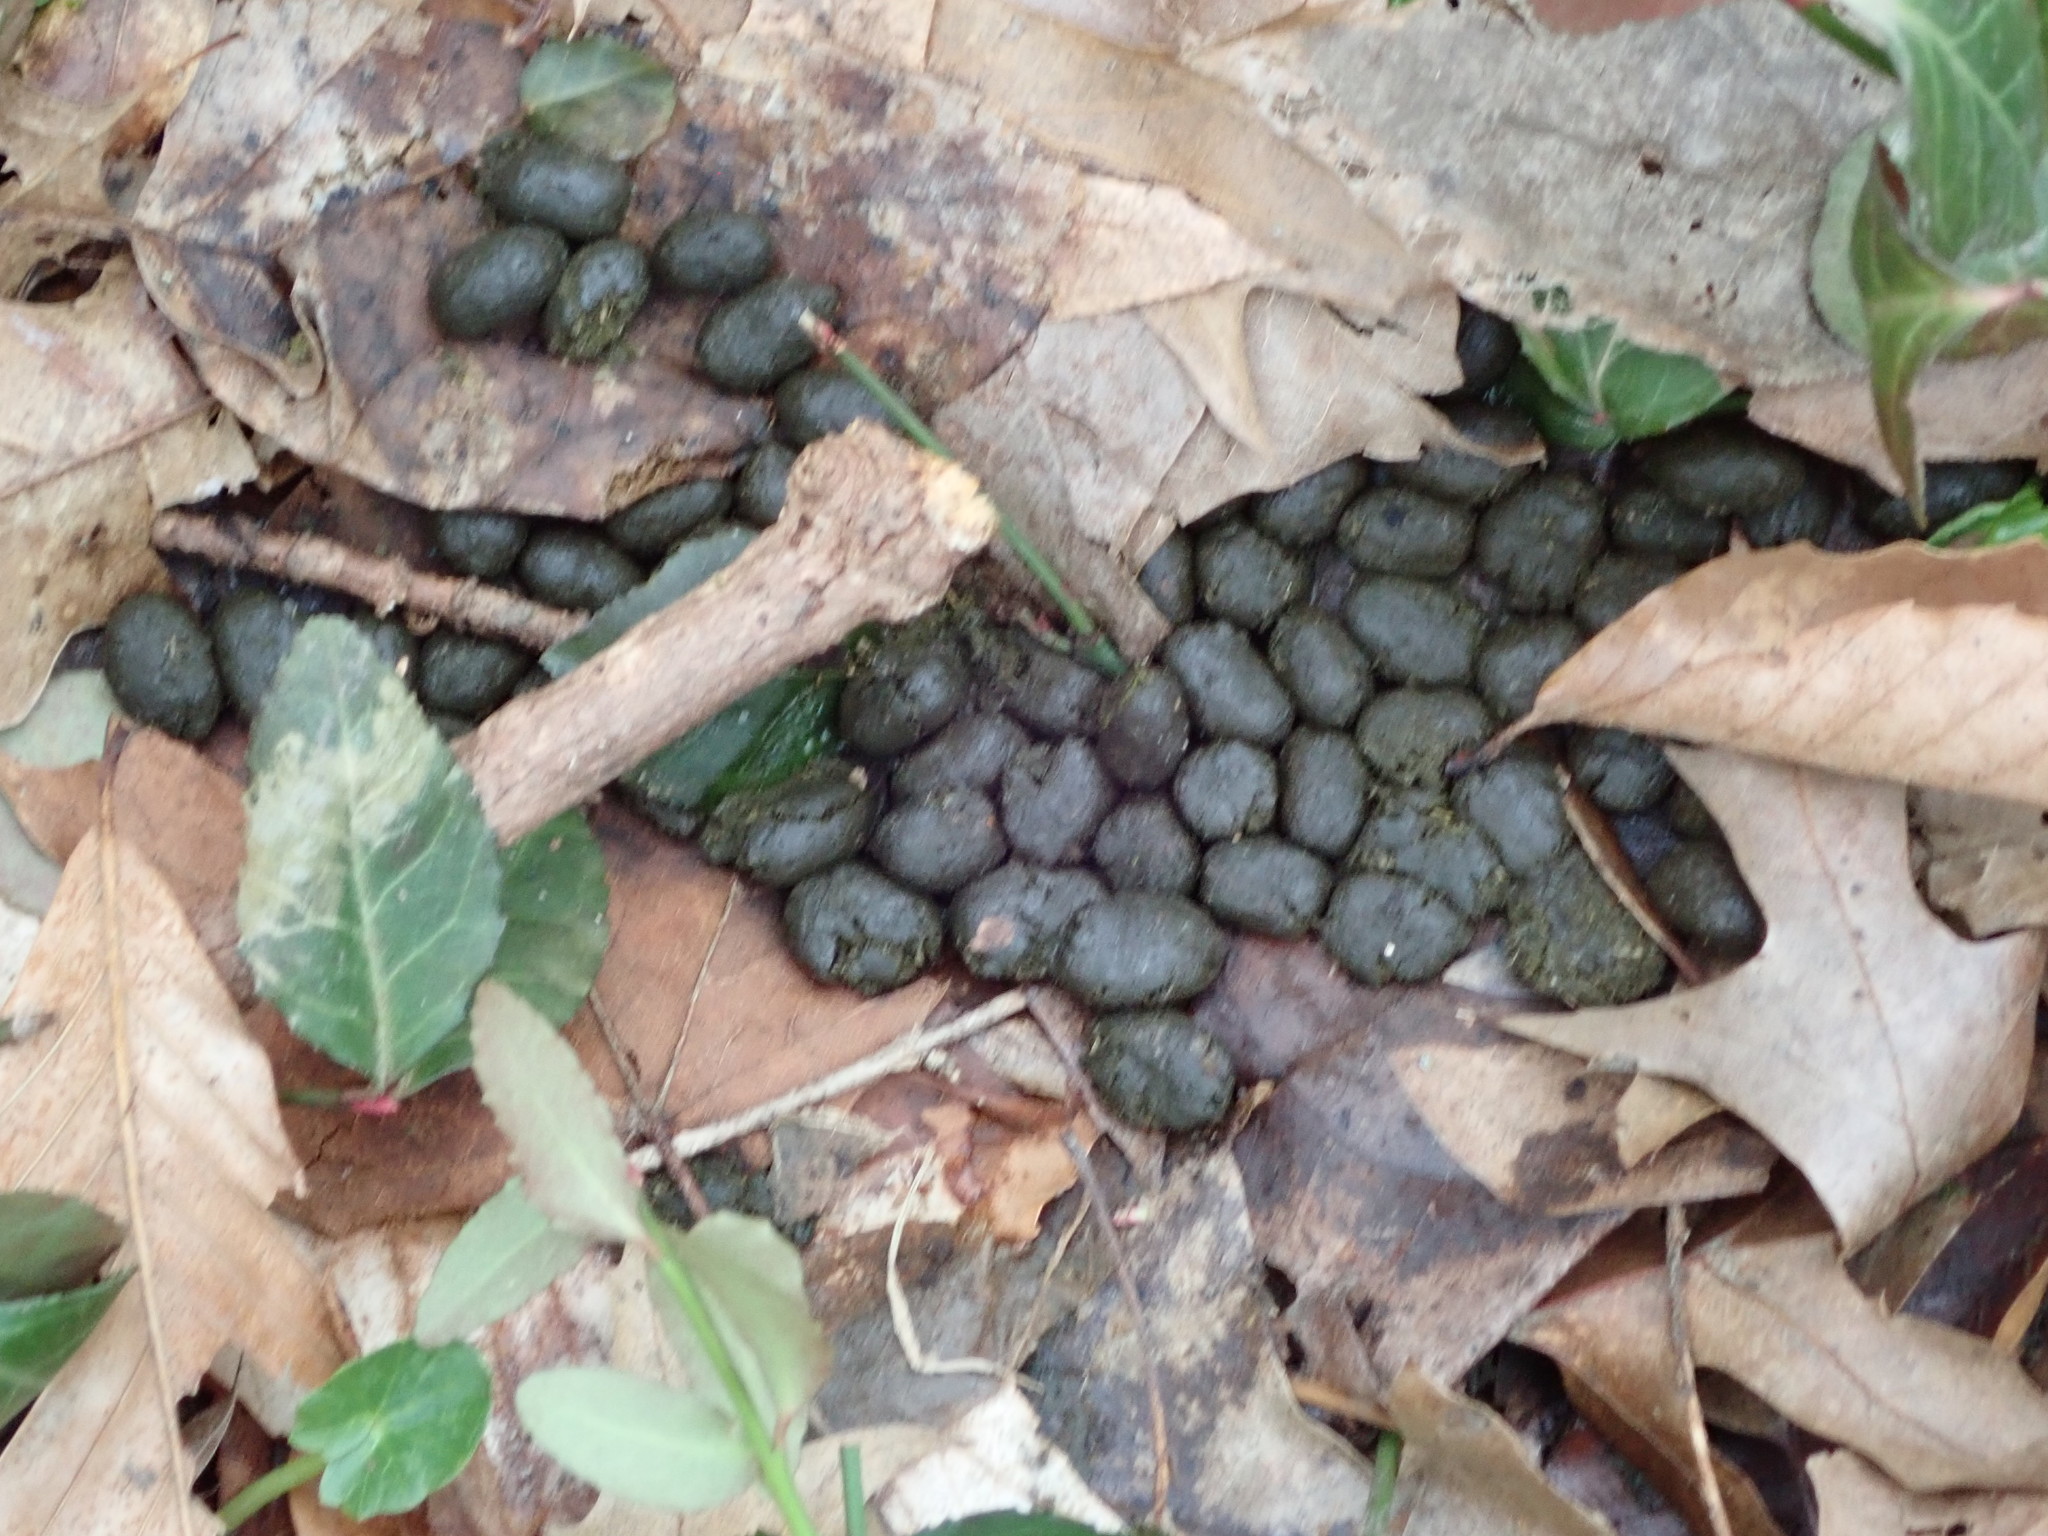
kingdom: Animalia
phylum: Chordata
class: Mammalia
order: Artiodactyla
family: Cervidae
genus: Odocoileus
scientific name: Odocoileus virginianus
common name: White-tailed deer
